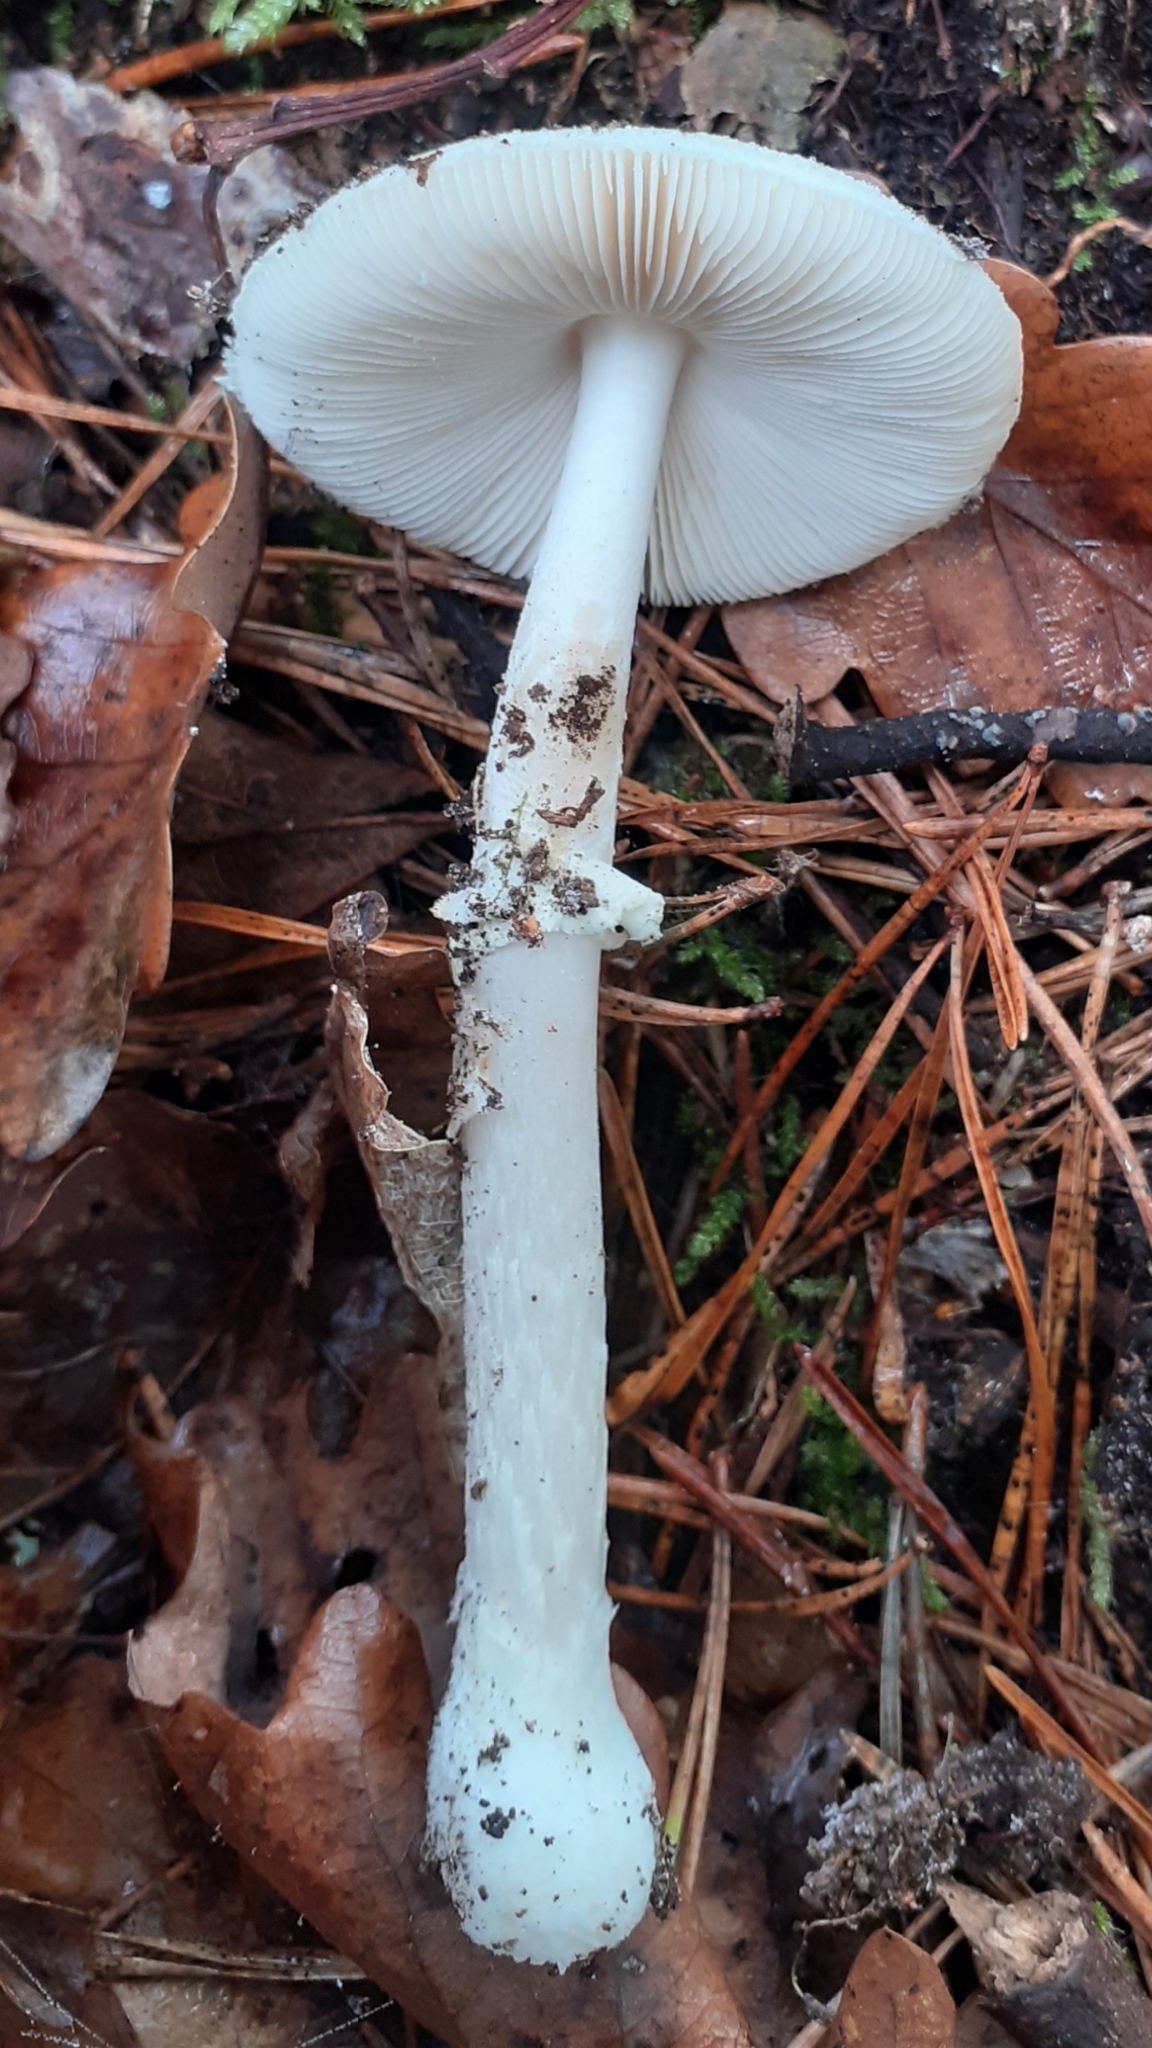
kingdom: Fungi
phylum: Basidiomycota
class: Agaricomycetes
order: Agaricales
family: Amanitaceae
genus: Amanita
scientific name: Amanita citrina
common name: False death-cap
